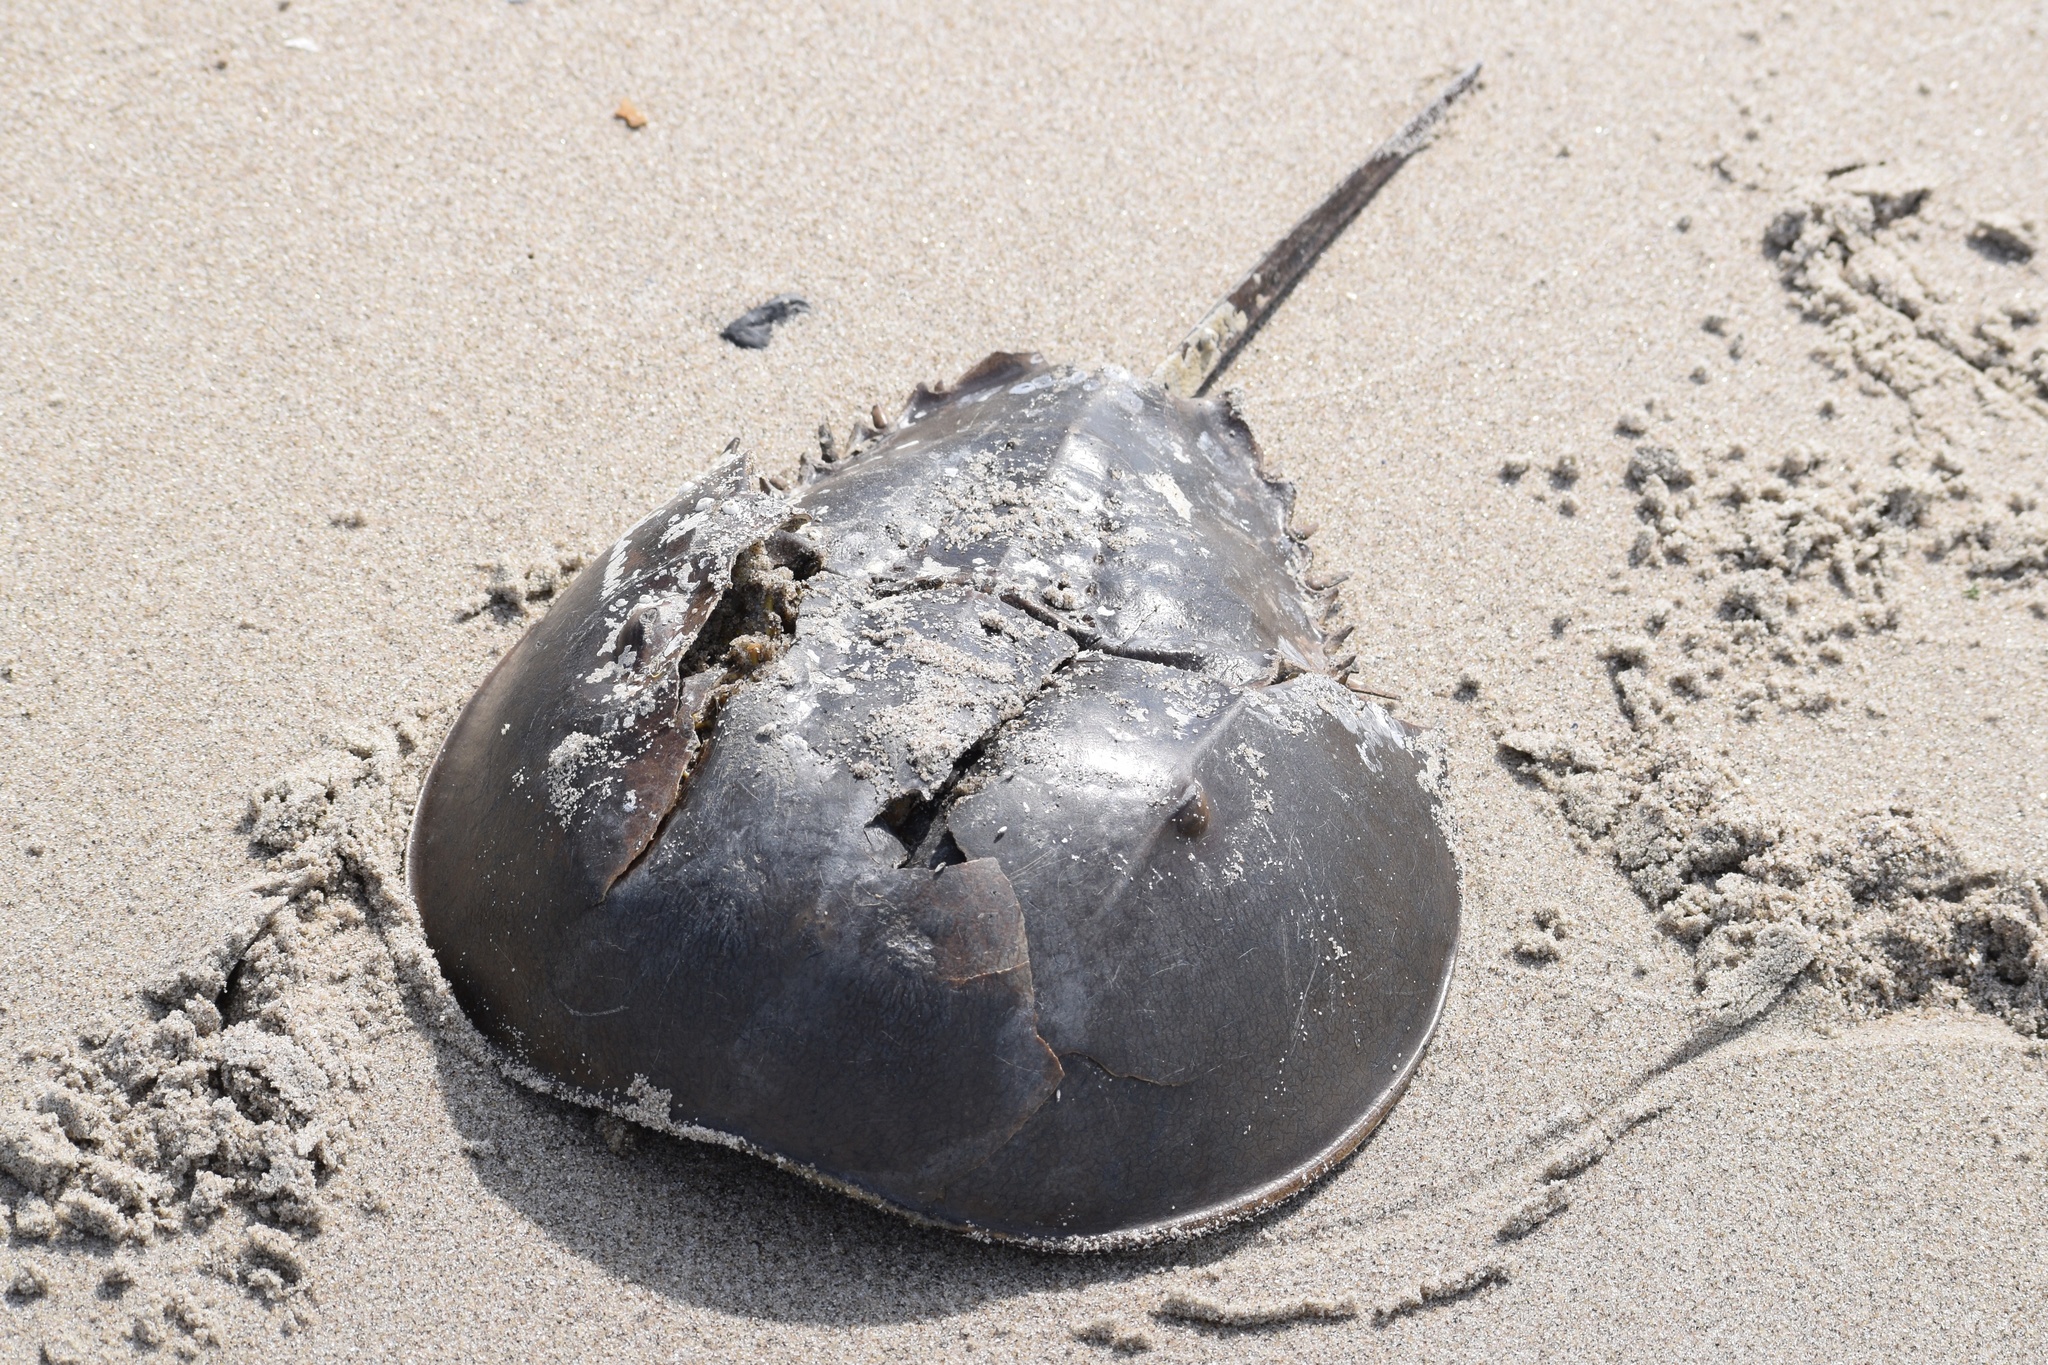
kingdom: Animalia
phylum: Arthropoda
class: Merostomata
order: Xiphosurida
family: Limulidae
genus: Limulus
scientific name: Limulus polyphemus
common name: Horseshoe crab
